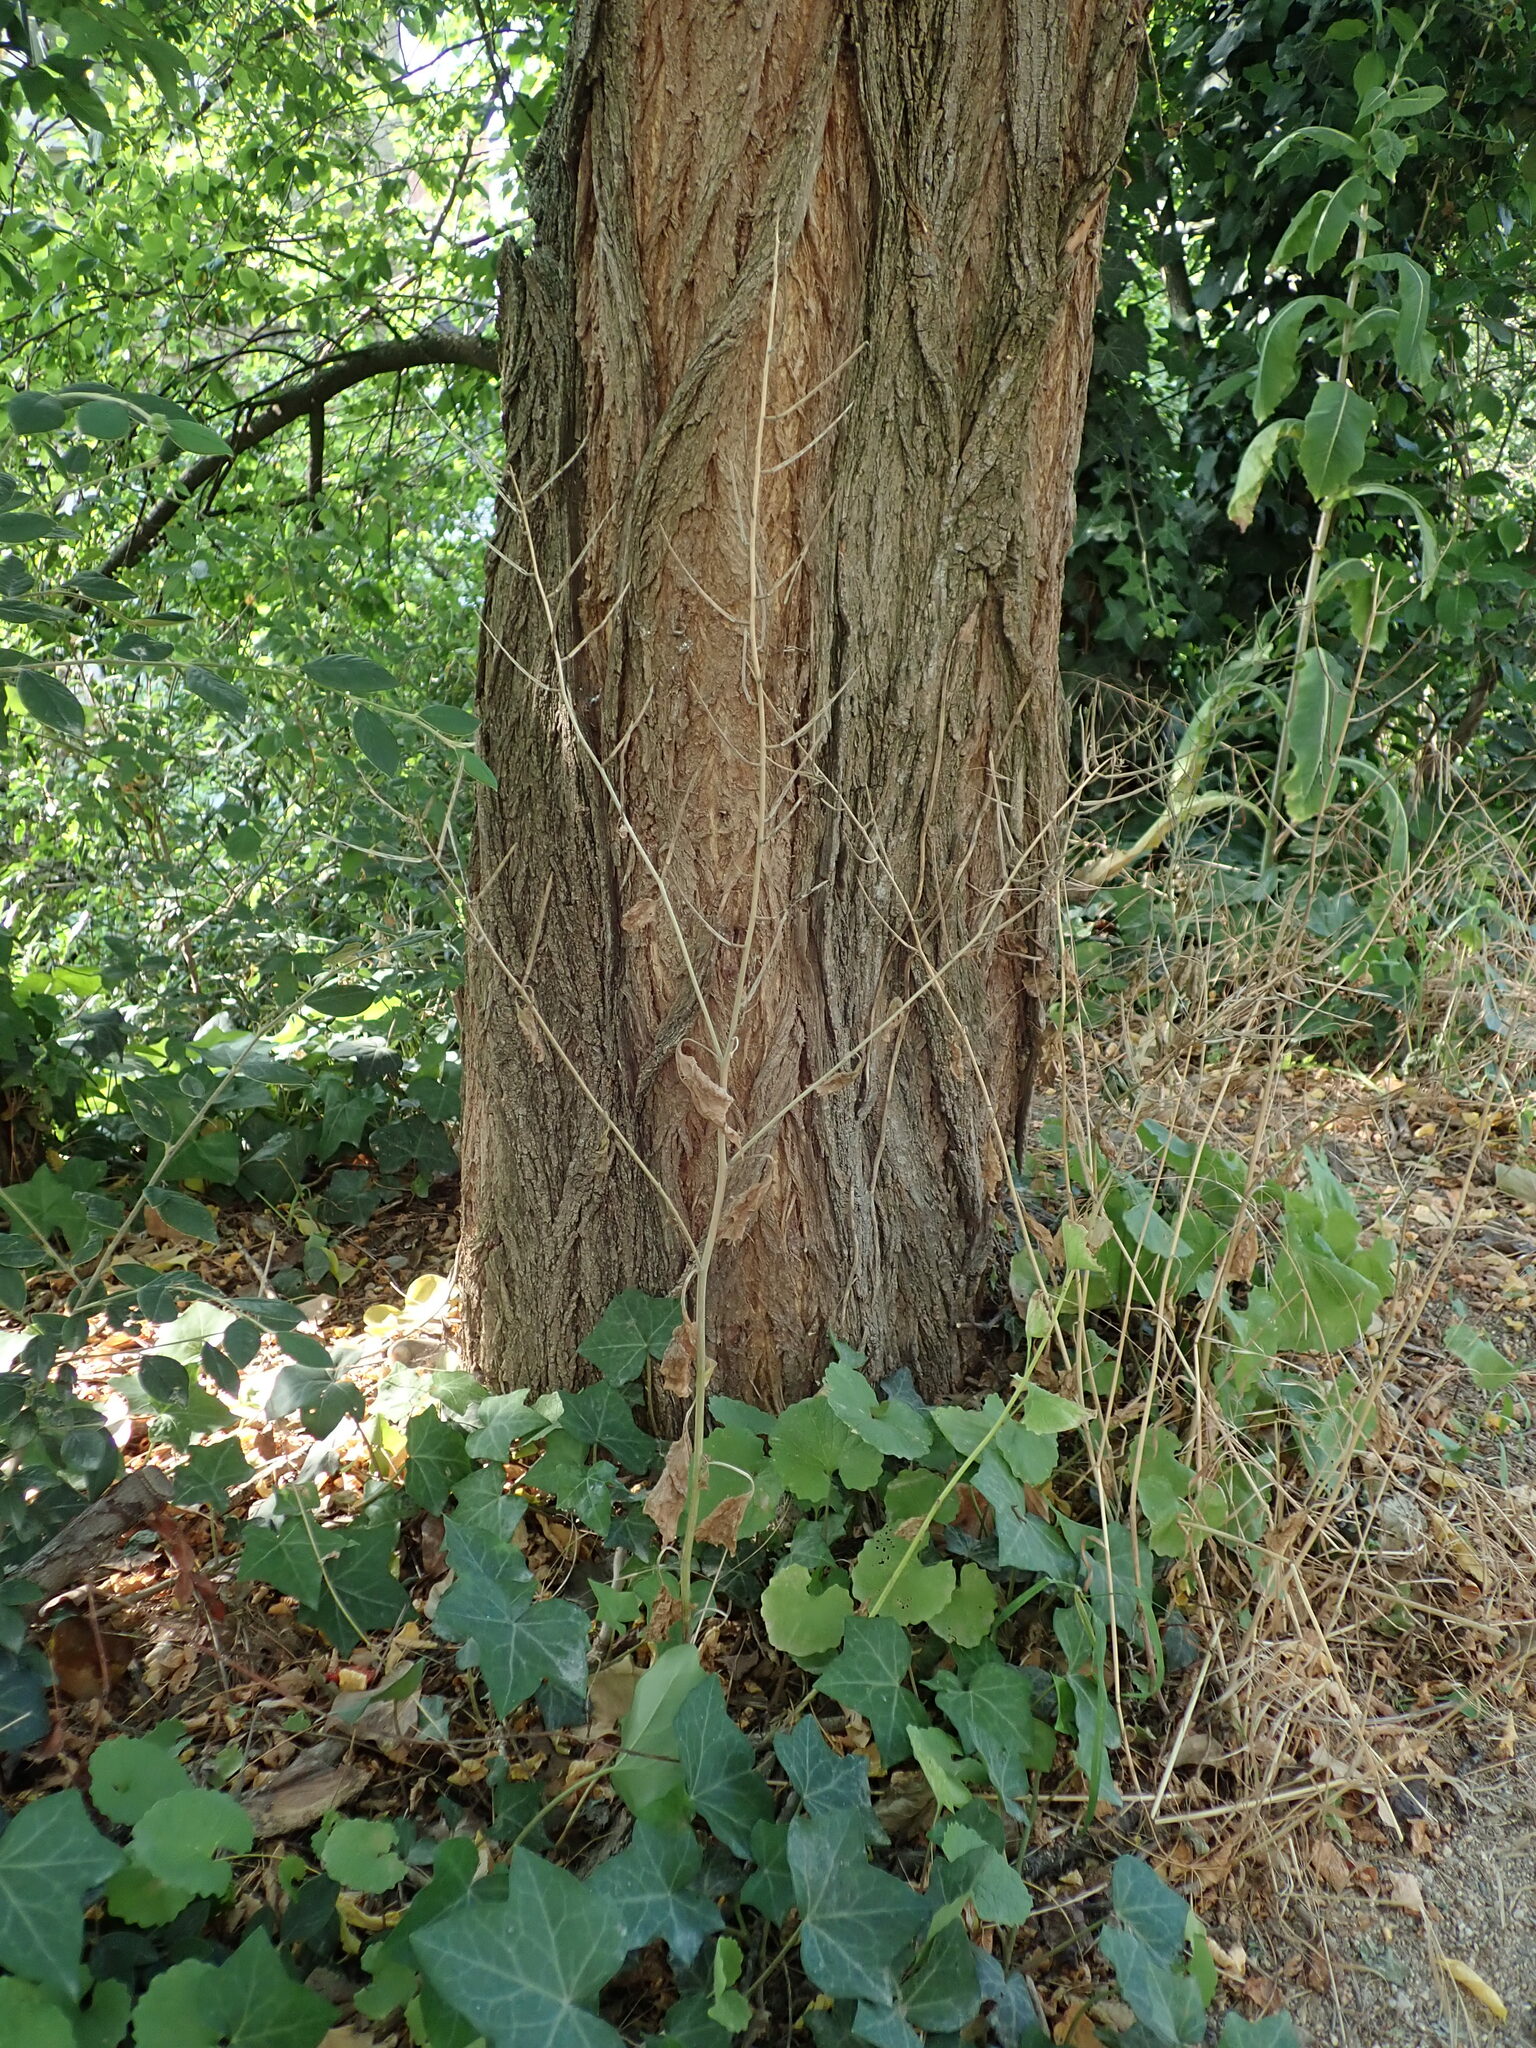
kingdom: Plantae
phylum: Tracheophyta
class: Magnoliopsida
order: Brassicales
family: Brassicaceae
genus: Alliaria
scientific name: Alliaria petiolata
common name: Garlic mustard
